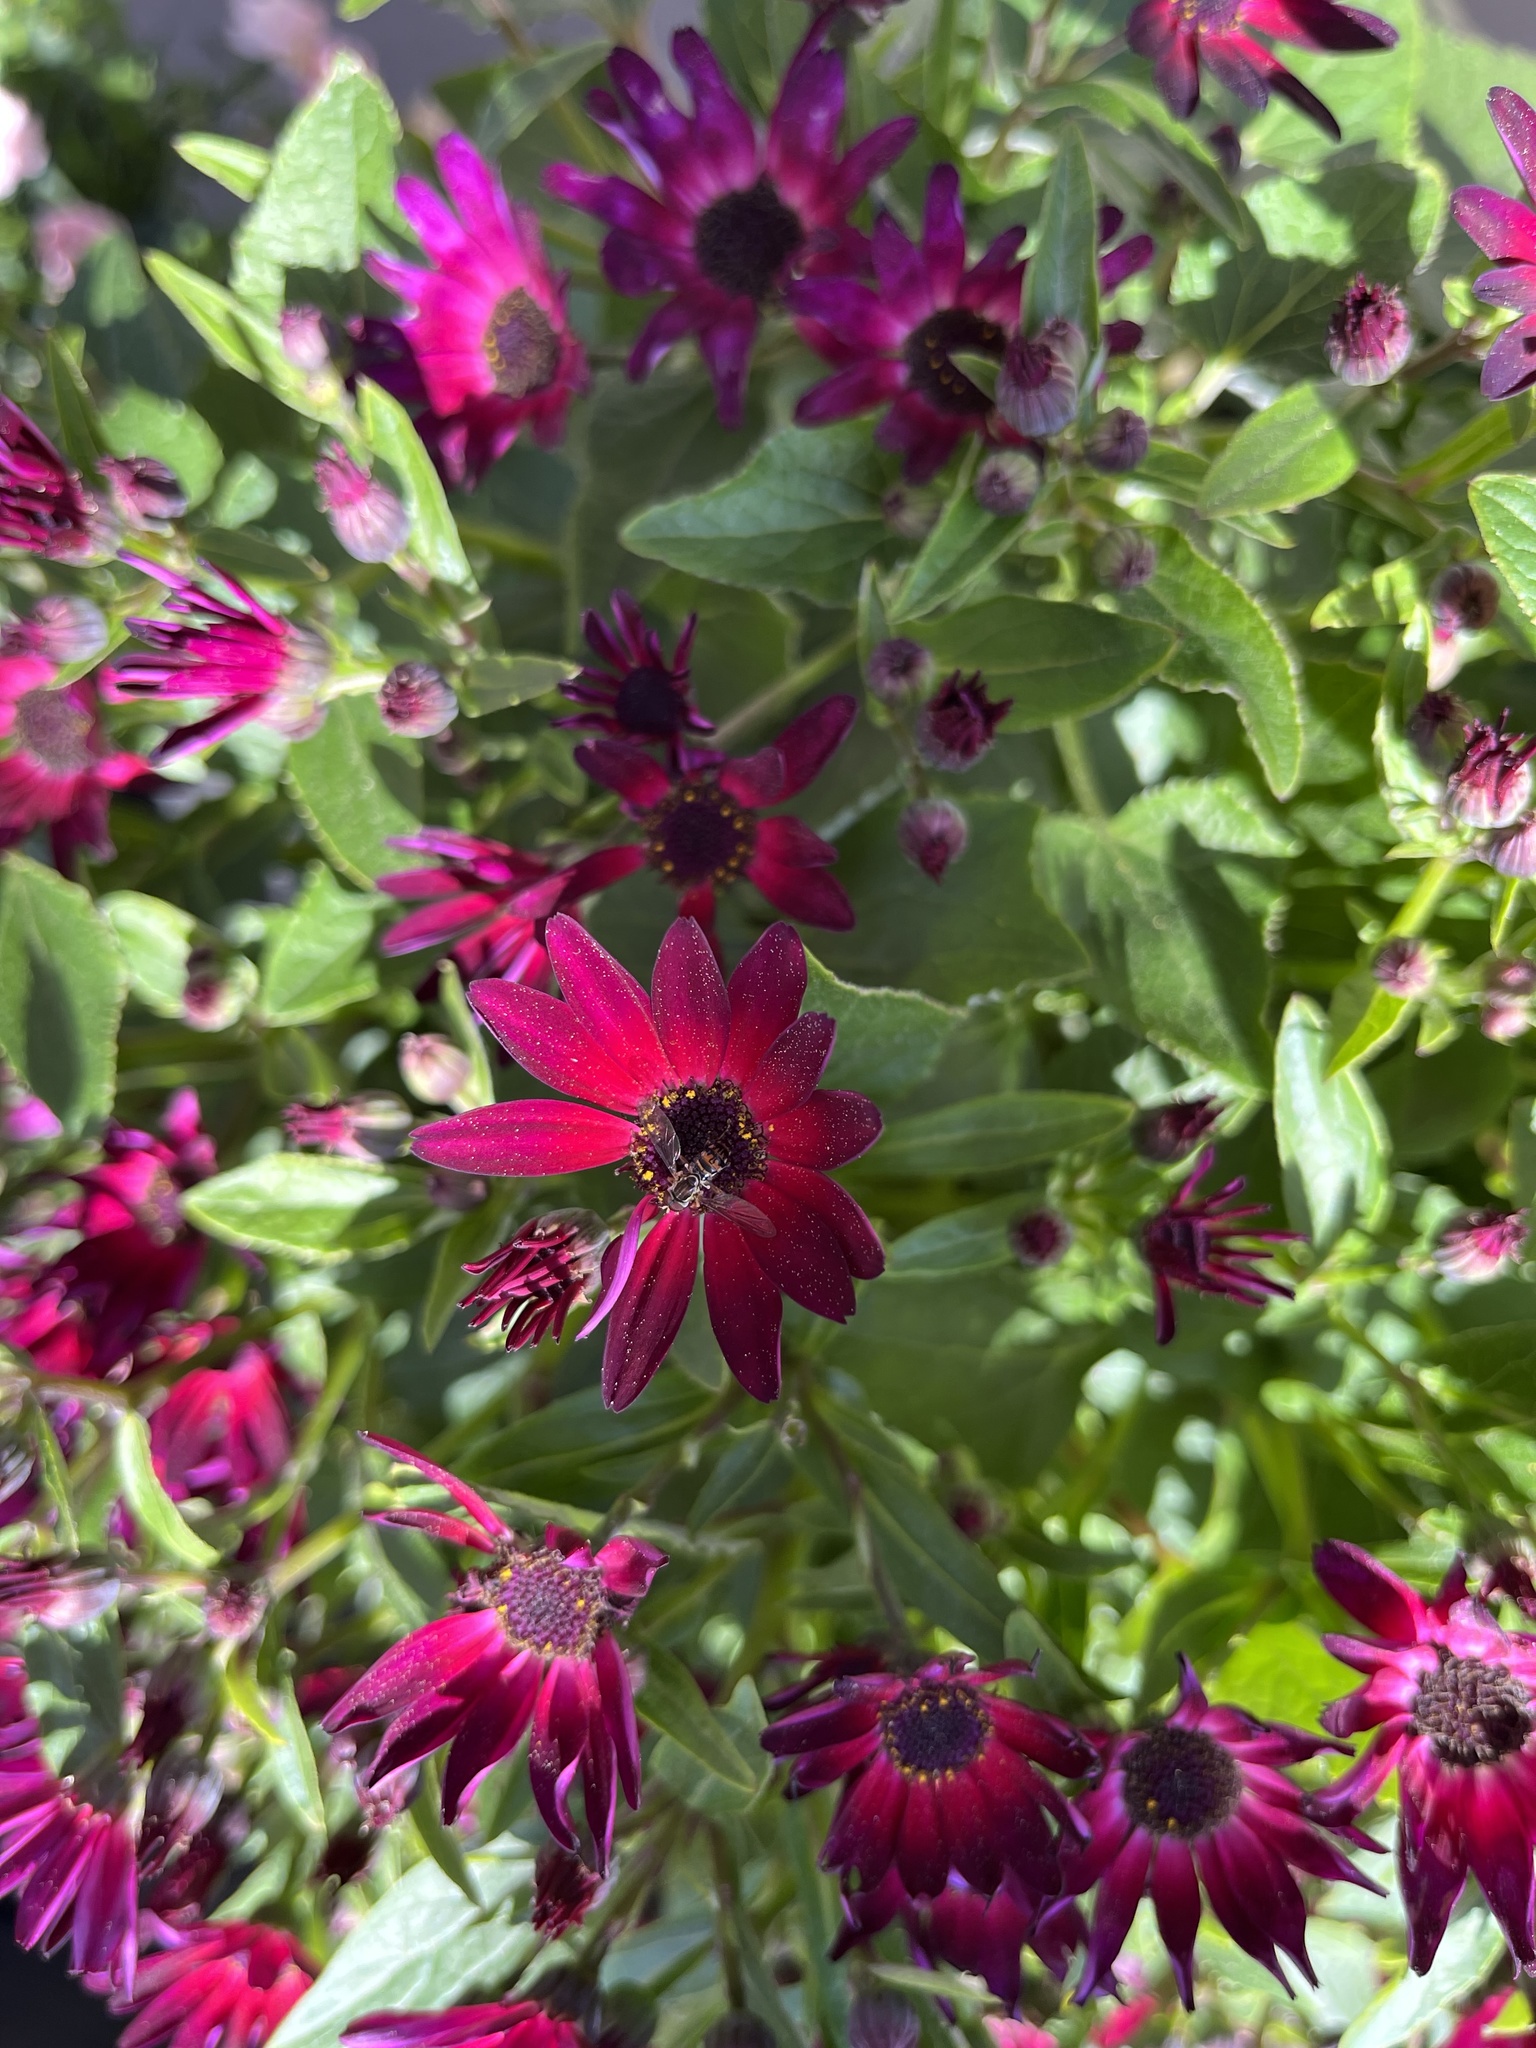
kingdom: Animalia
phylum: Arthropoda
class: Insecta
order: Diptera
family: Syrphidae
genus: Toxomerus
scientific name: Toxomerus geminatus
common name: Eastern calligrapher
